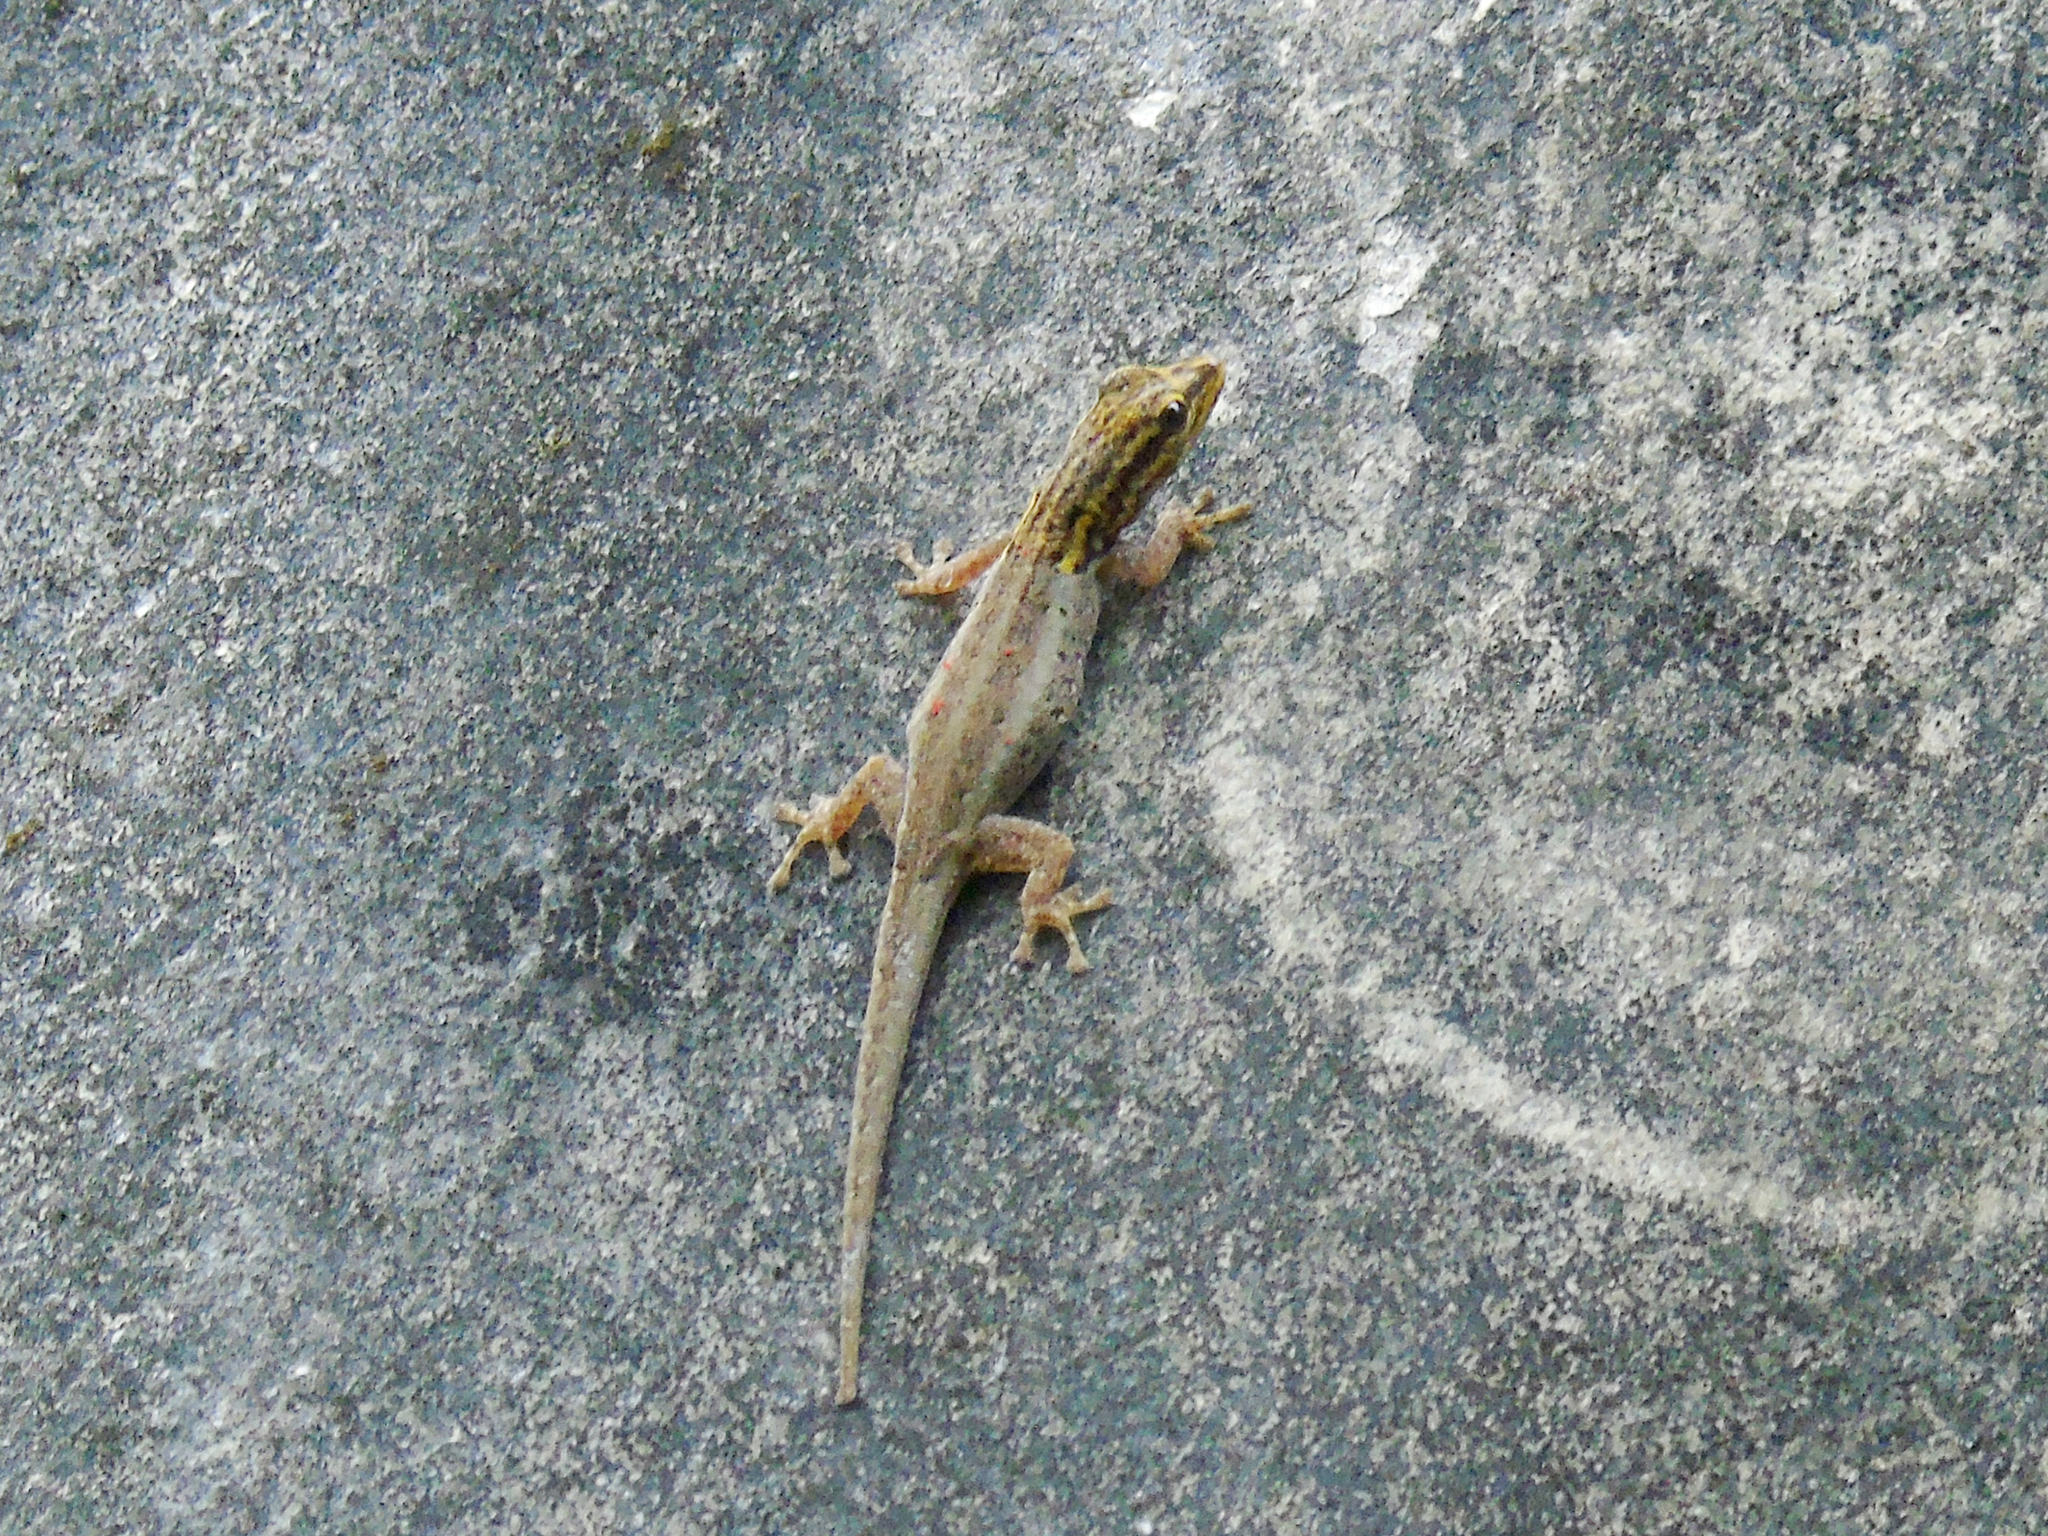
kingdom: Animalia
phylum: Chordata
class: Squamata
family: Gekkonidae
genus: Lygodactylus
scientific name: Lygodactylus picturatus
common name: Painted dwarf gecko
